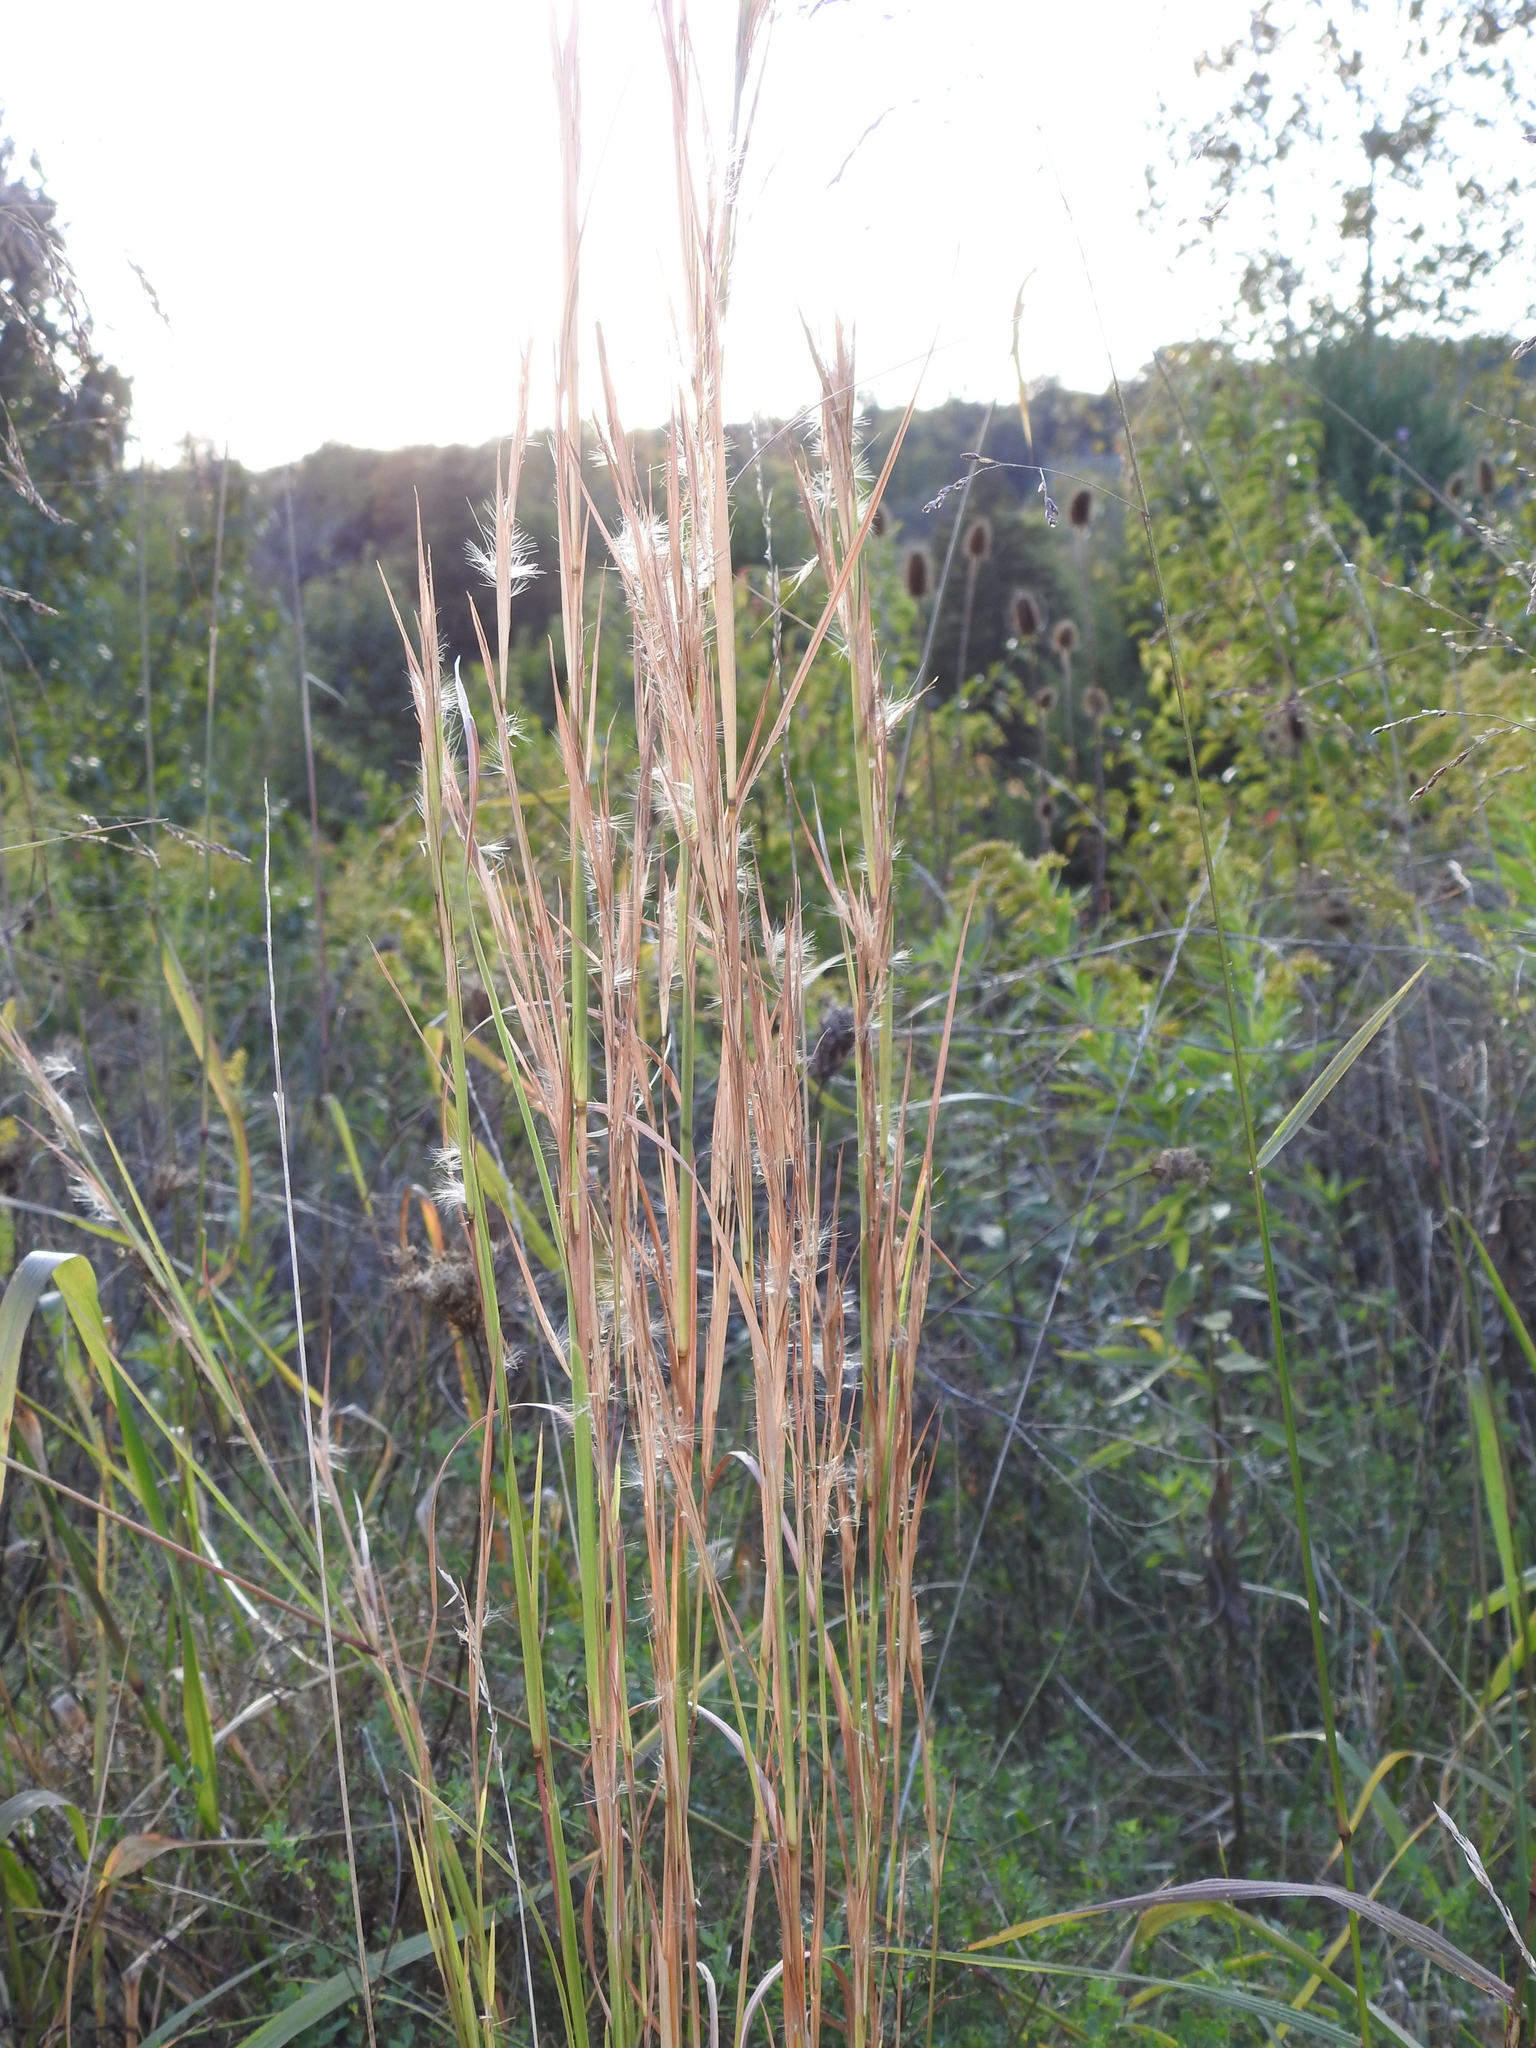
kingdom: Plantae
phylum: Tracheophyta
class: Liliopsida
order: Poales
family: Poaceae
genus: Andropogon
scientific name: Andropogon virginicus
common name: Broomsedge bluestem
